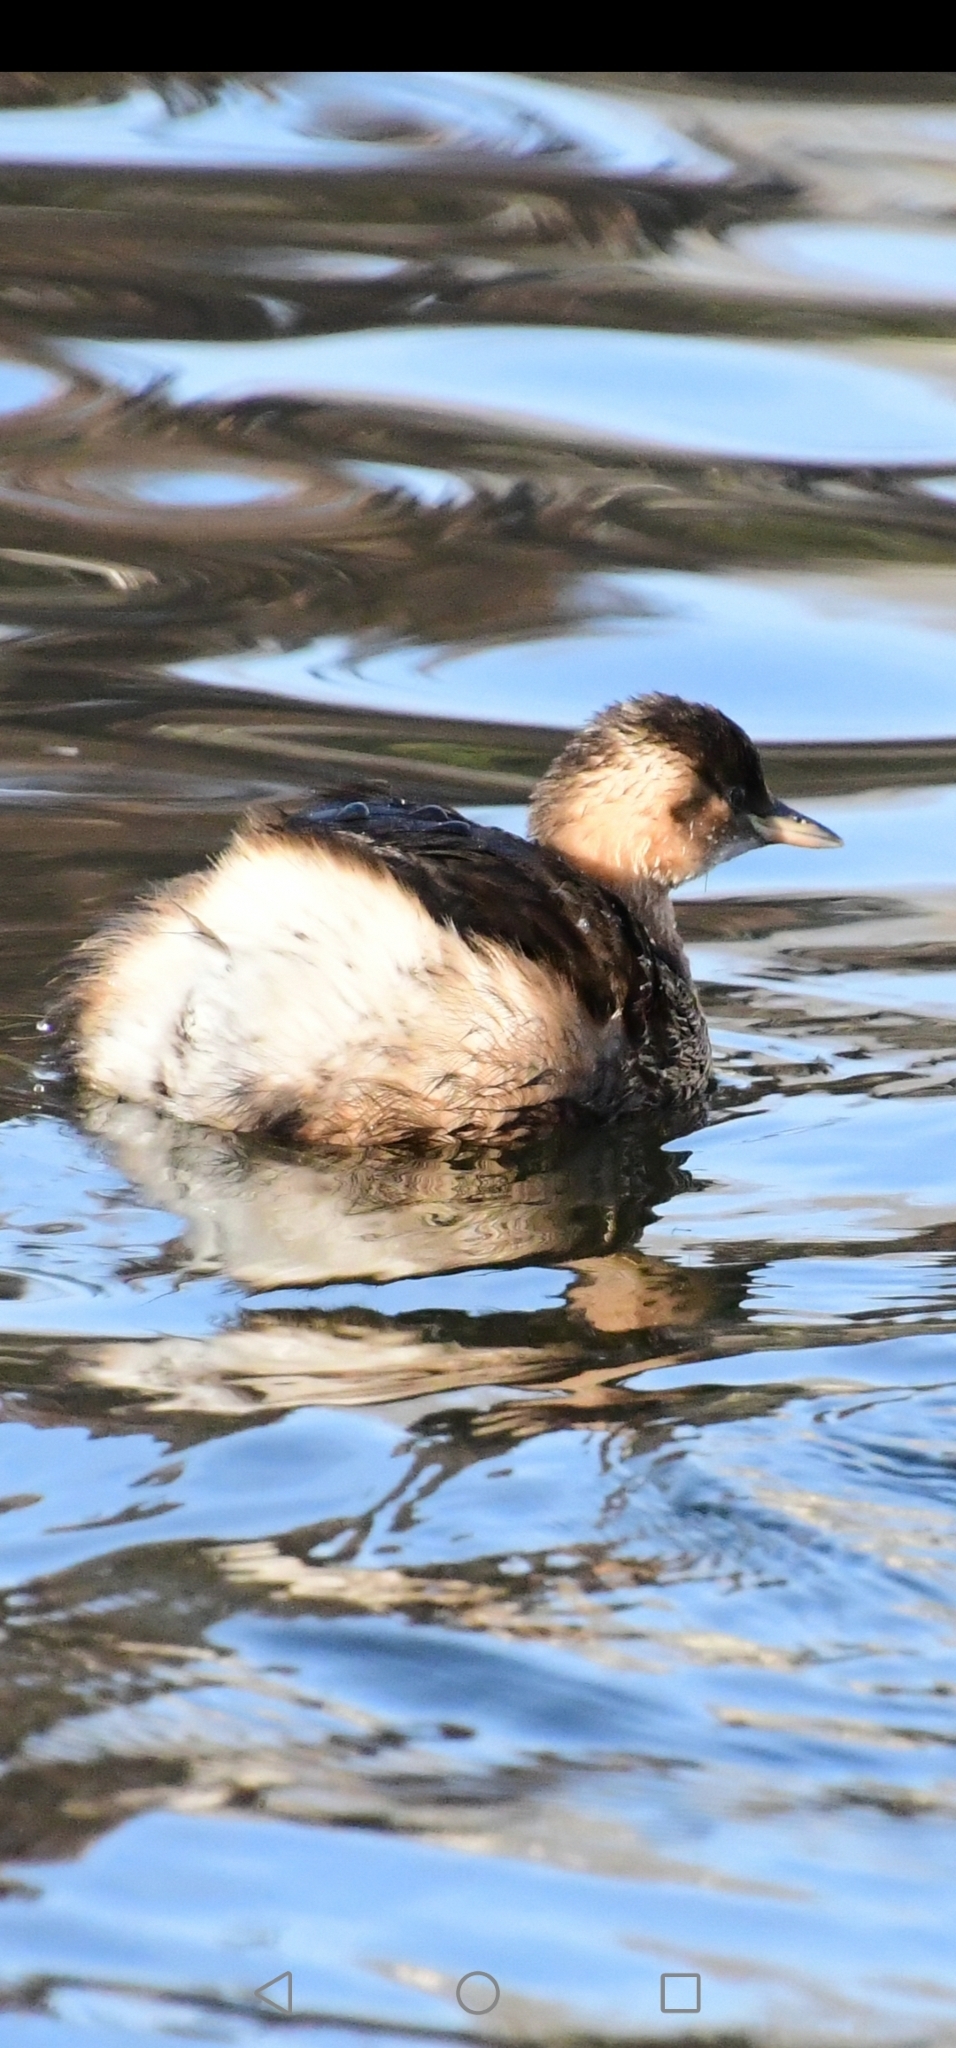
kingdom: Animalia
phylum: Chordata
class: Aves
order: Podicipediformes
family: Podicipedidae
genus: Tachybaptus
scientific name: Tachybaptus ruficollis
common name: Little grebe
